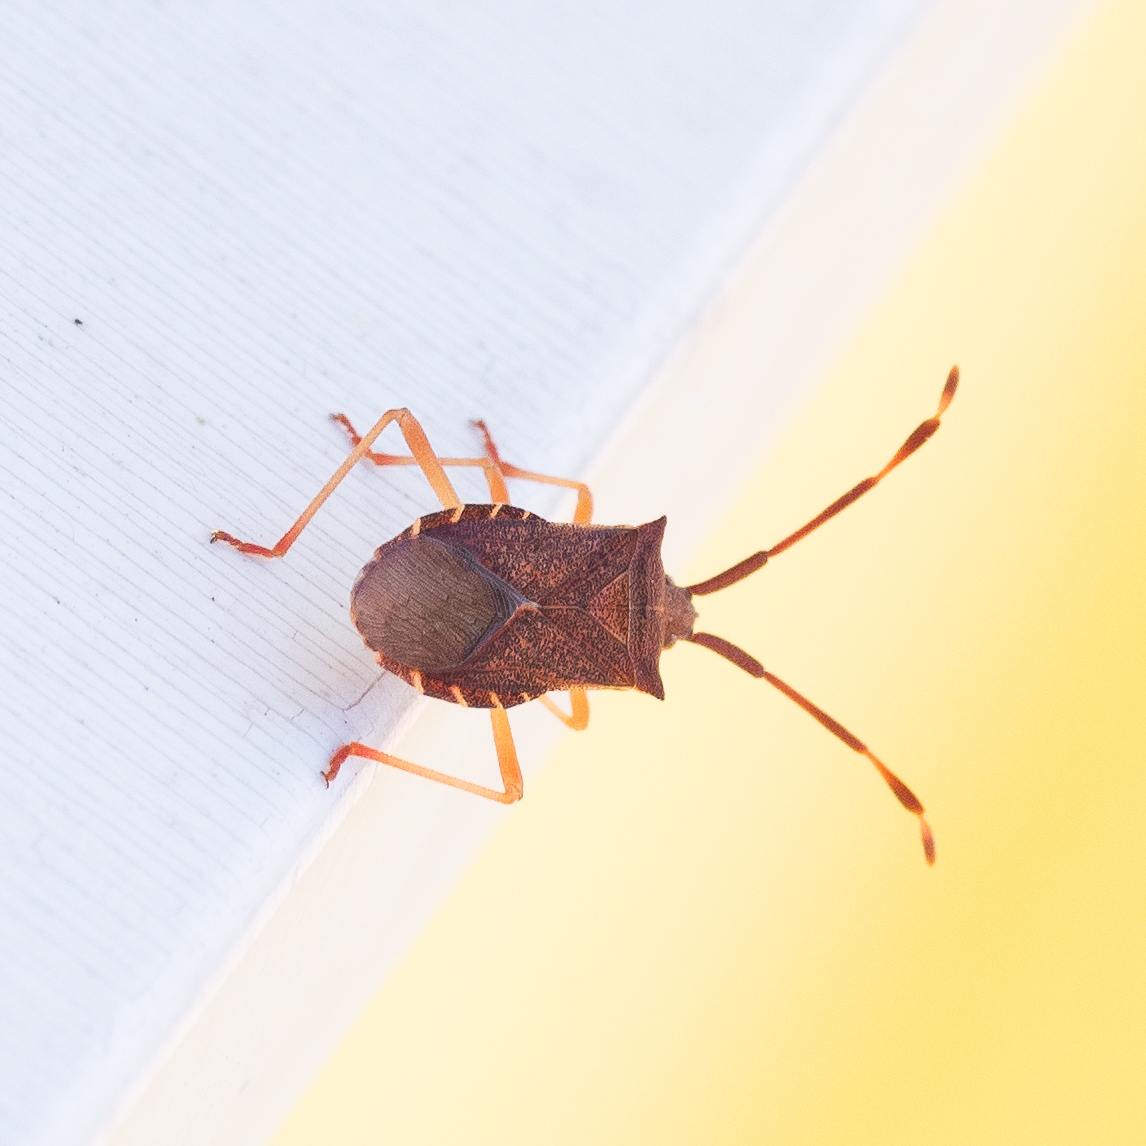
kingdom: Animalia
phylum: Arthropoda
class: Insecta
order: Hemiptera
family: Coreidae
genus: Gonocerus
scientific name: Gonocerus acuteangulatus
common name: Box bug
